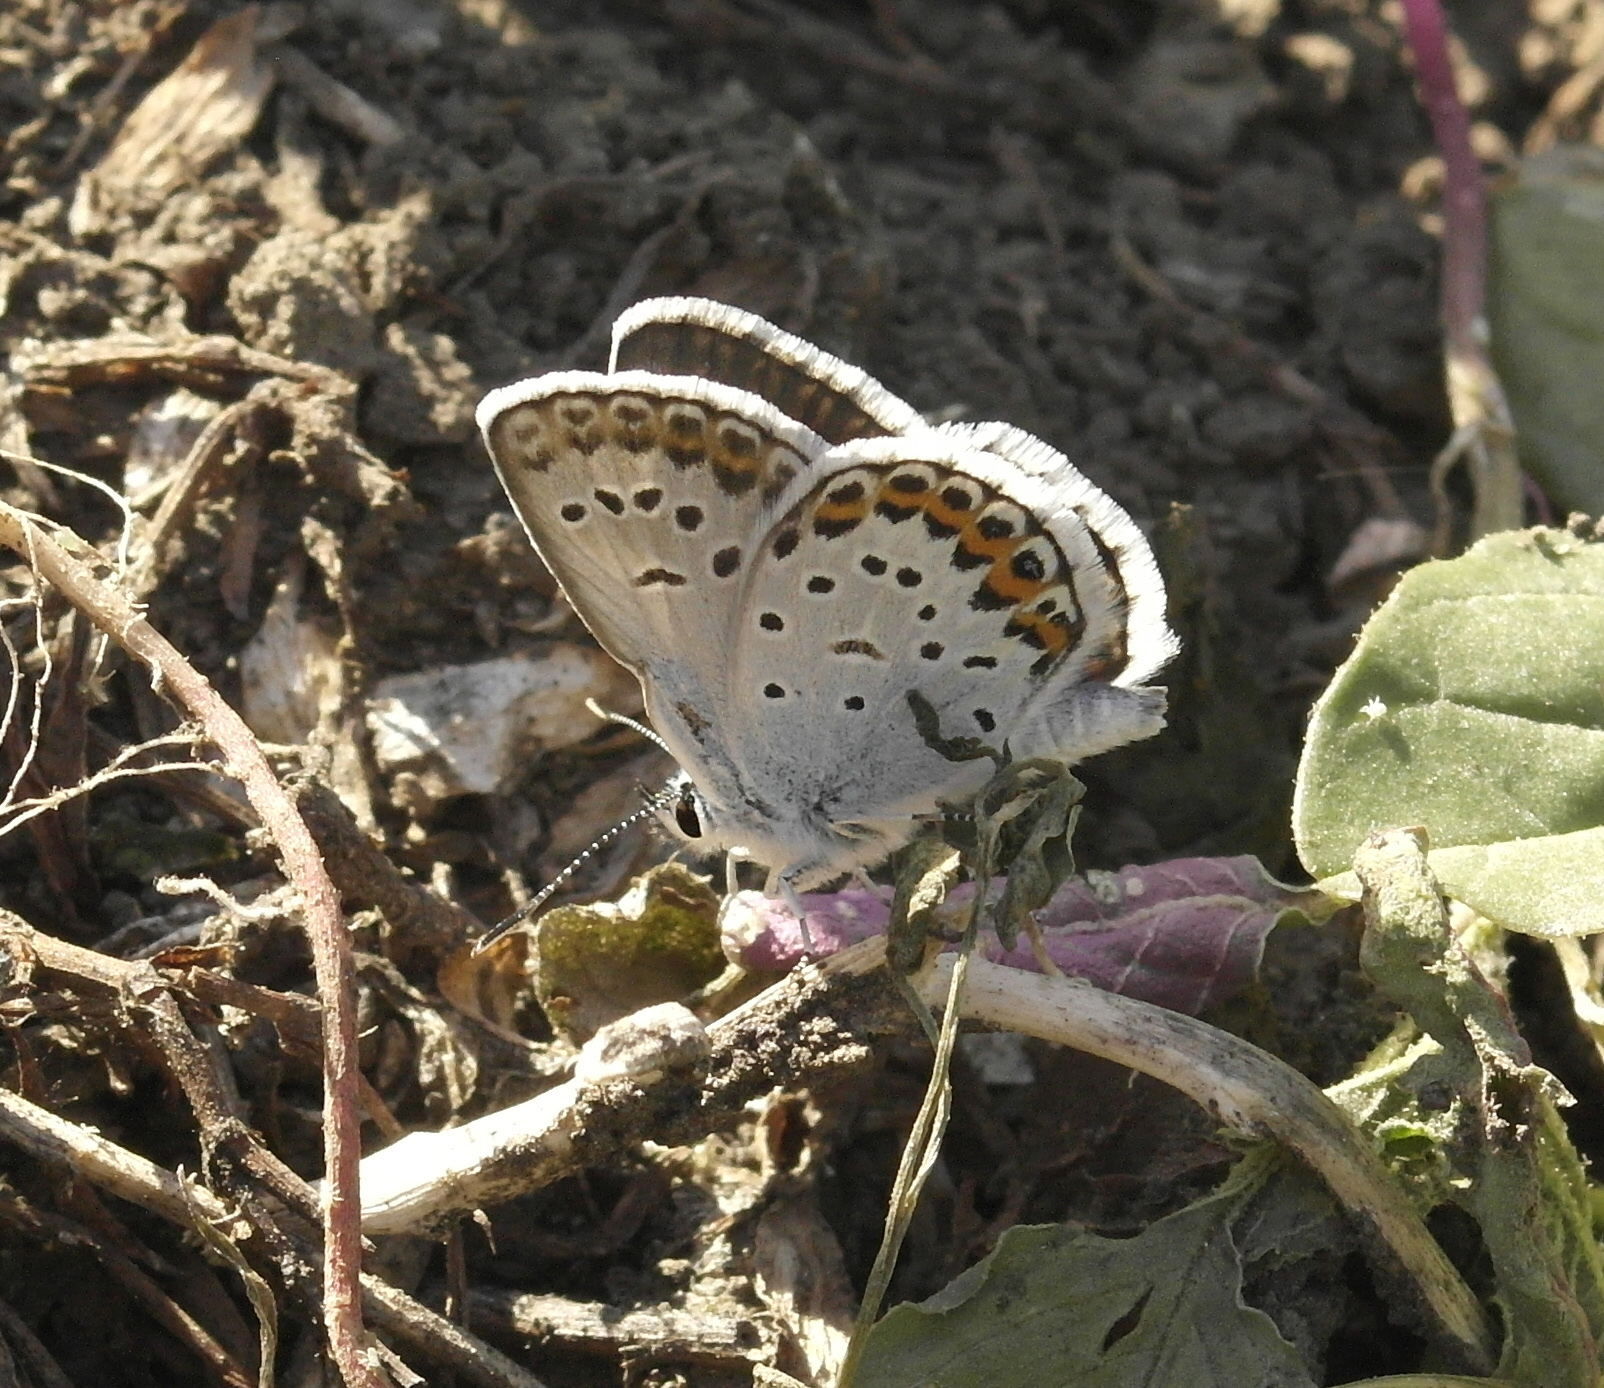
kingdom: Animalia
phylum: Arthropoda
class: Insecta
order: Lepidoptera
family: Lycaenidae
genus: Plebejus
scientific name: Plebejus argus
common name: Silver-studded blue
